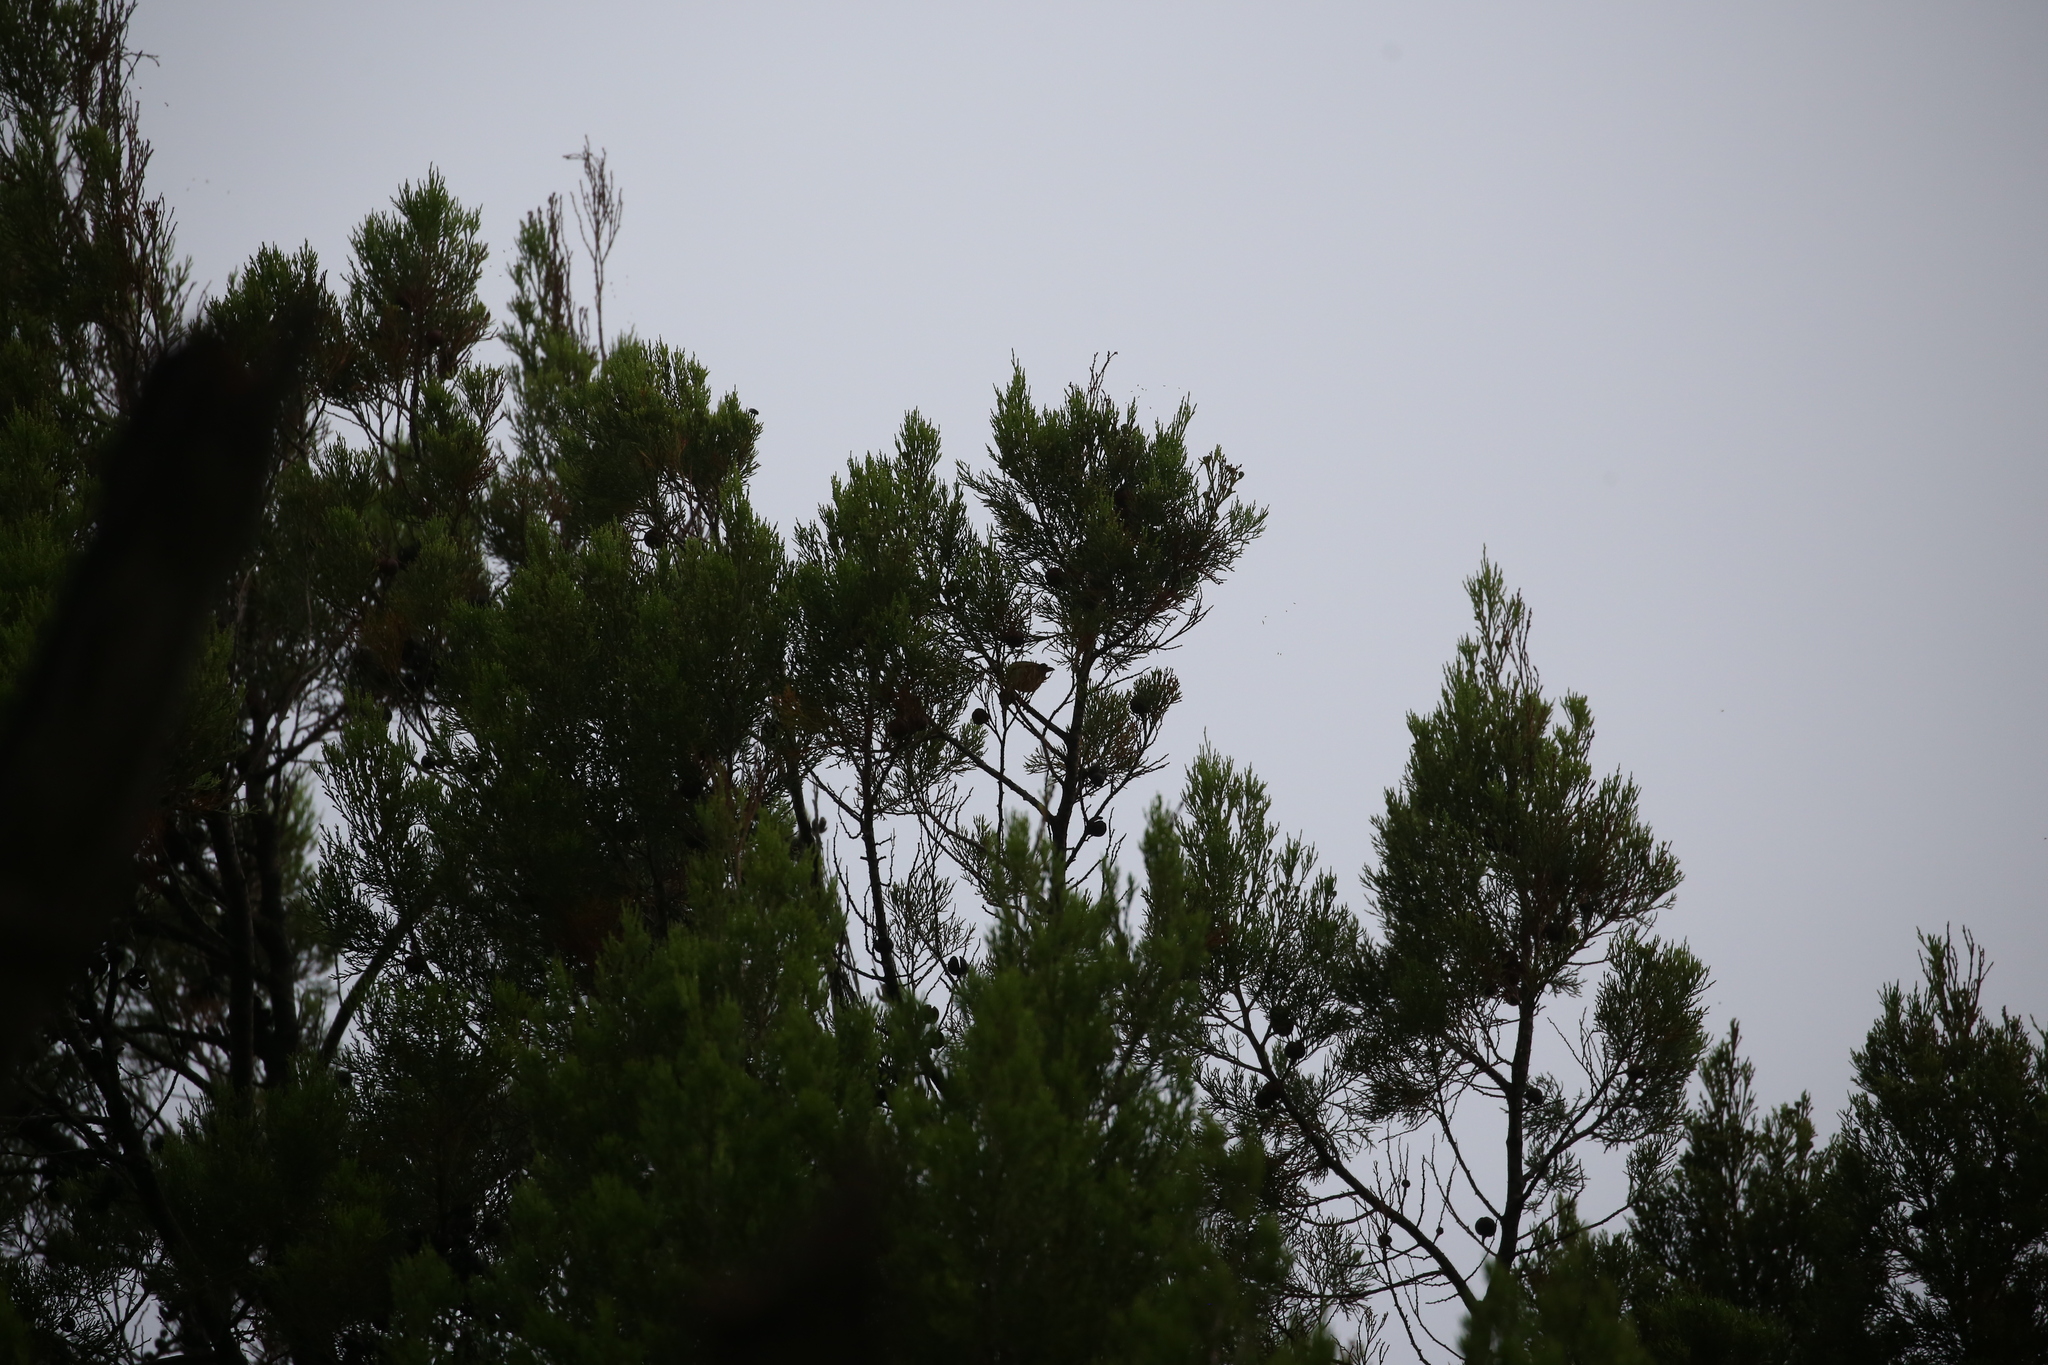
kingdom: Animalia
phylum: Chordata
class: Aves
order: Passeriformes
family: Zosteropidae
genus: Zosterops
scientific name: Zosterops lateralis
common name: Silvereye
